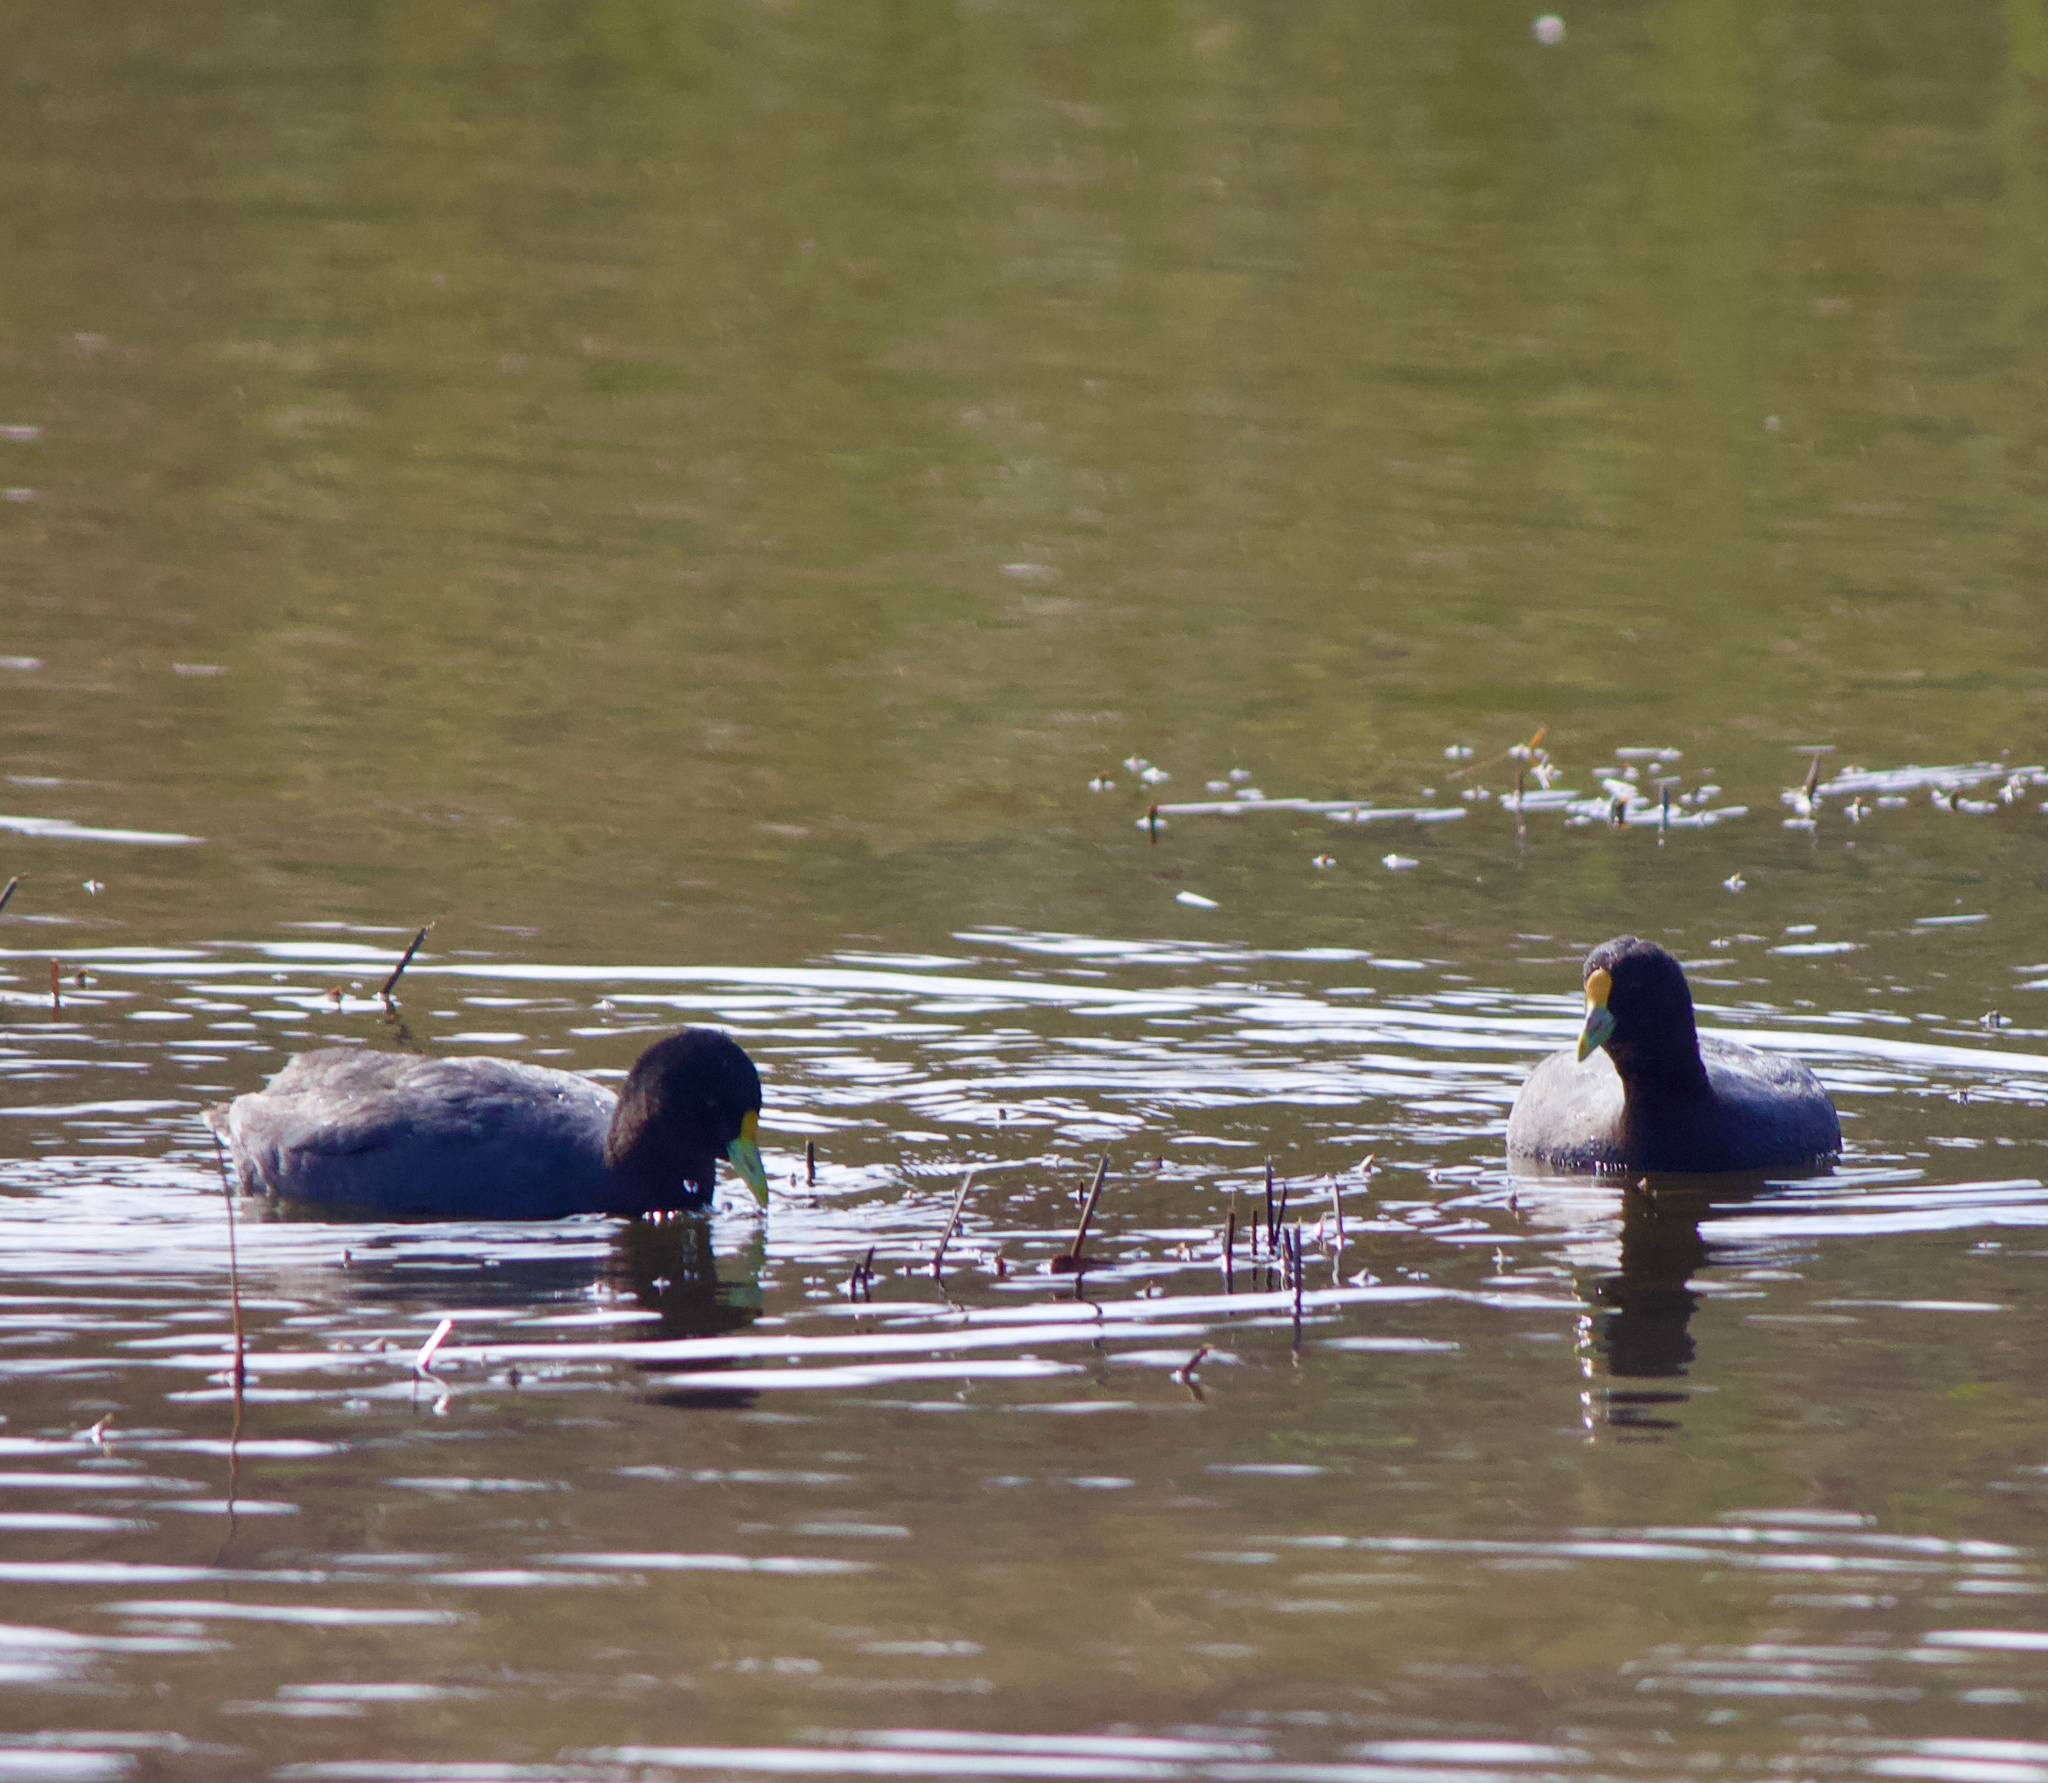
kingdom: Animalia
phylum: Chordata
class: Aves
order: Gruiformes
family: Rallidae
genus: Fulica
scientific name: Fulica leucoptera
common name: White-winged coot
